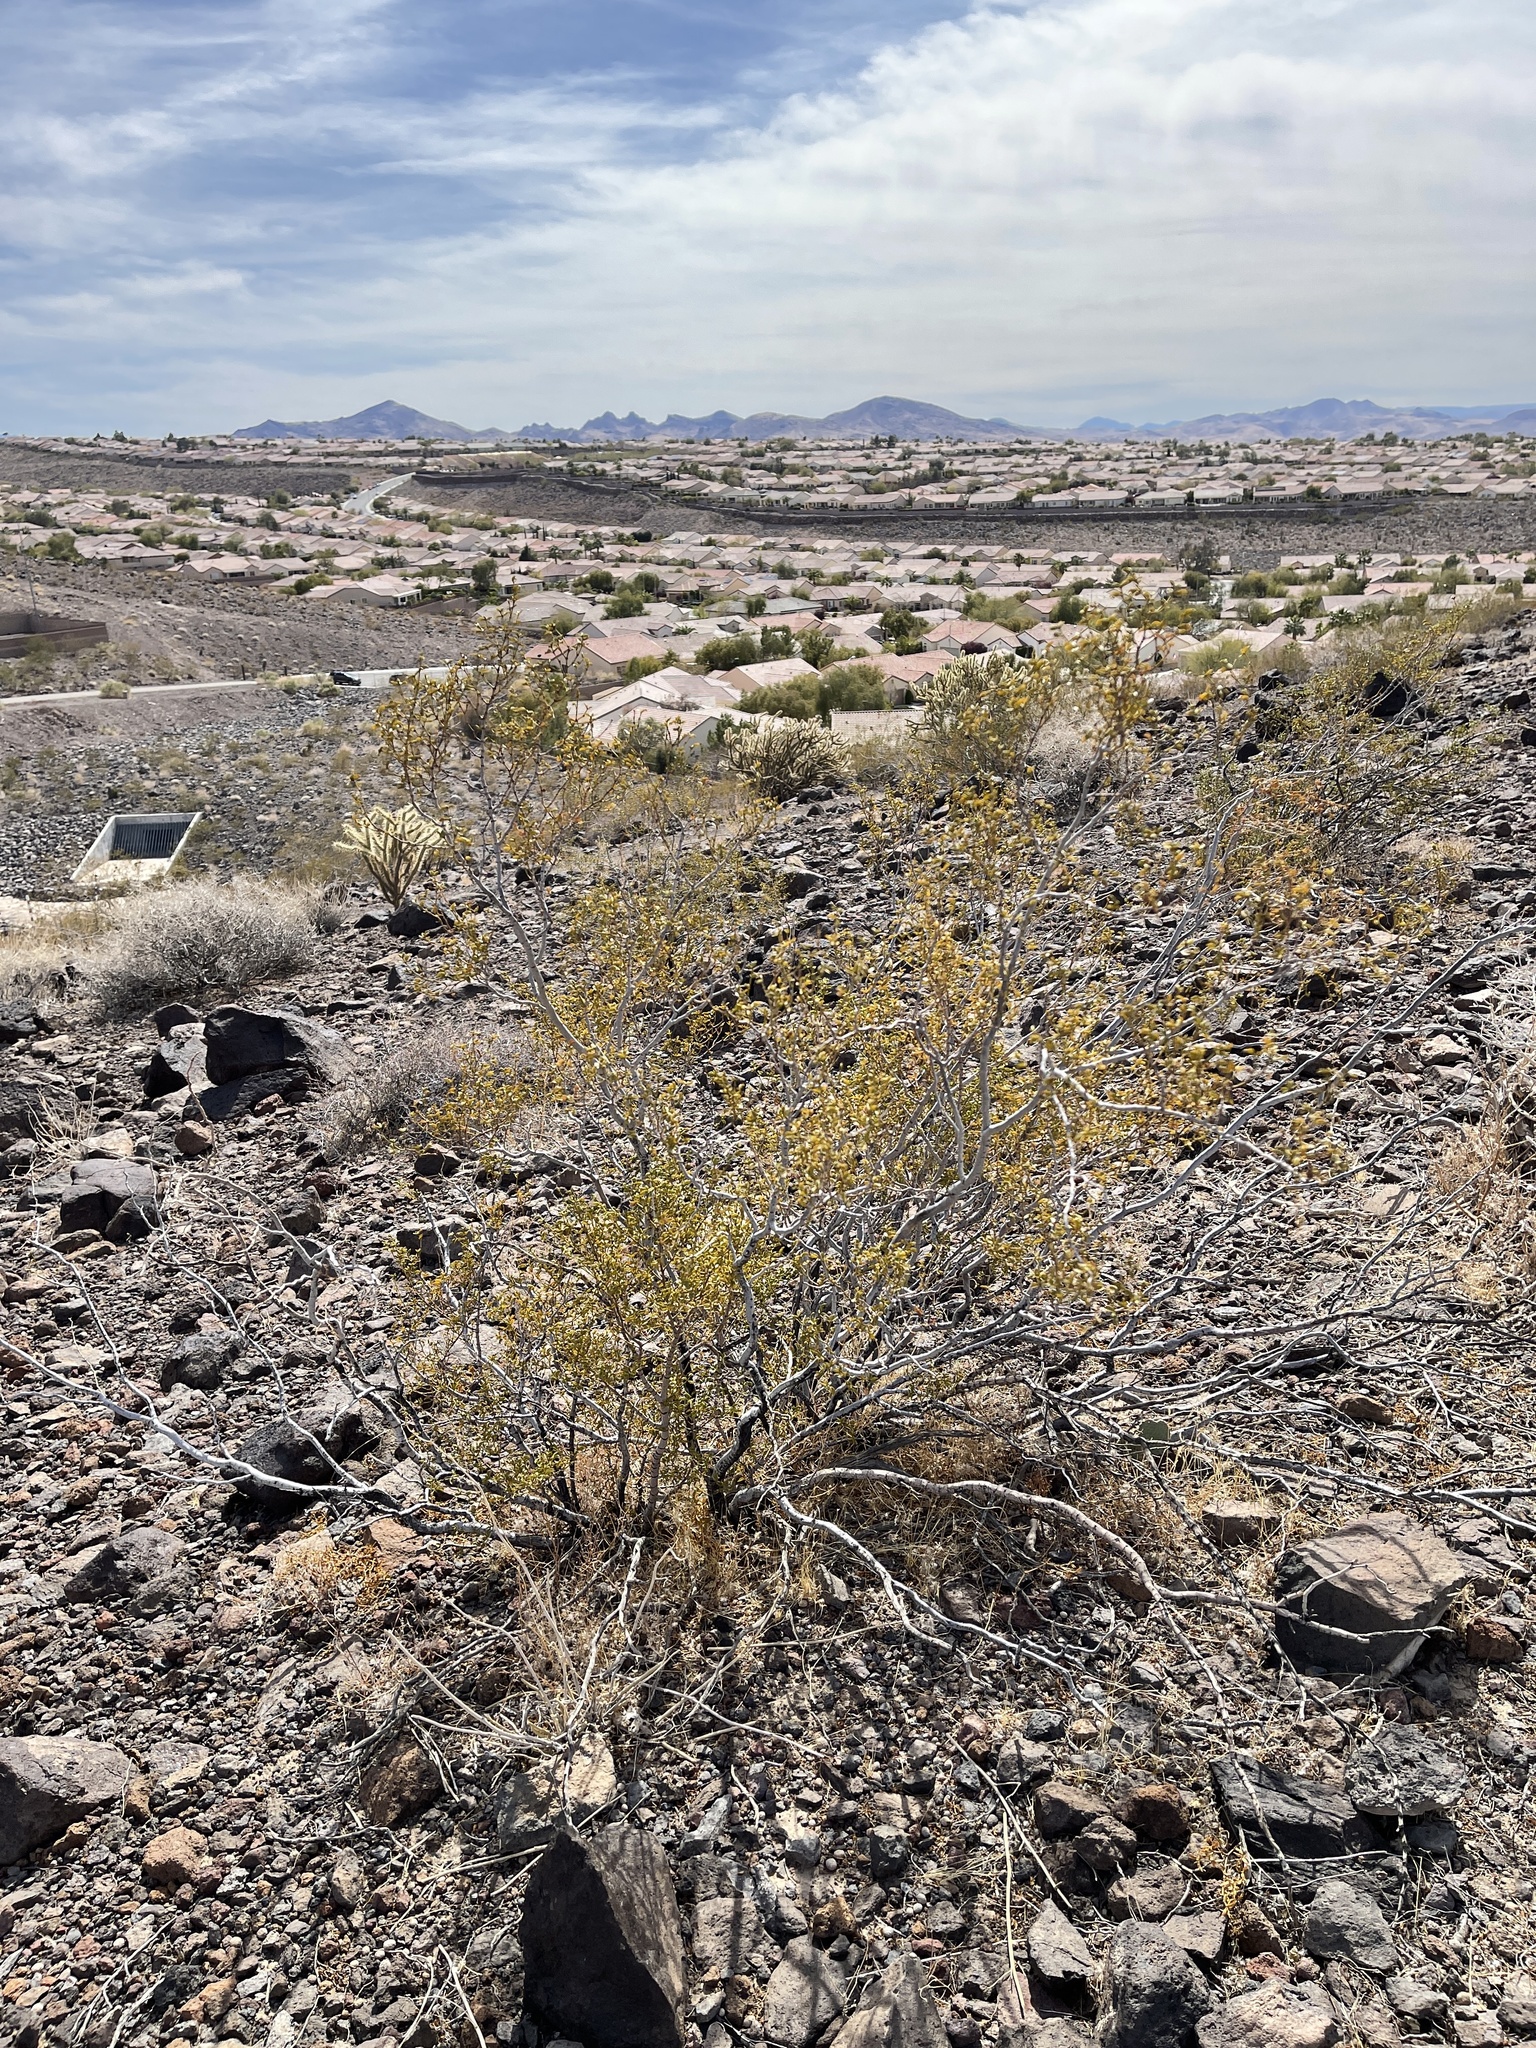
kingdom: Plantae
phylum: Tracheophyta
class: Magnoliopsida
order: Zygophyllales
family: Zygophyllaceae
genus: Larrea
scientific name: Larrea tridentata
